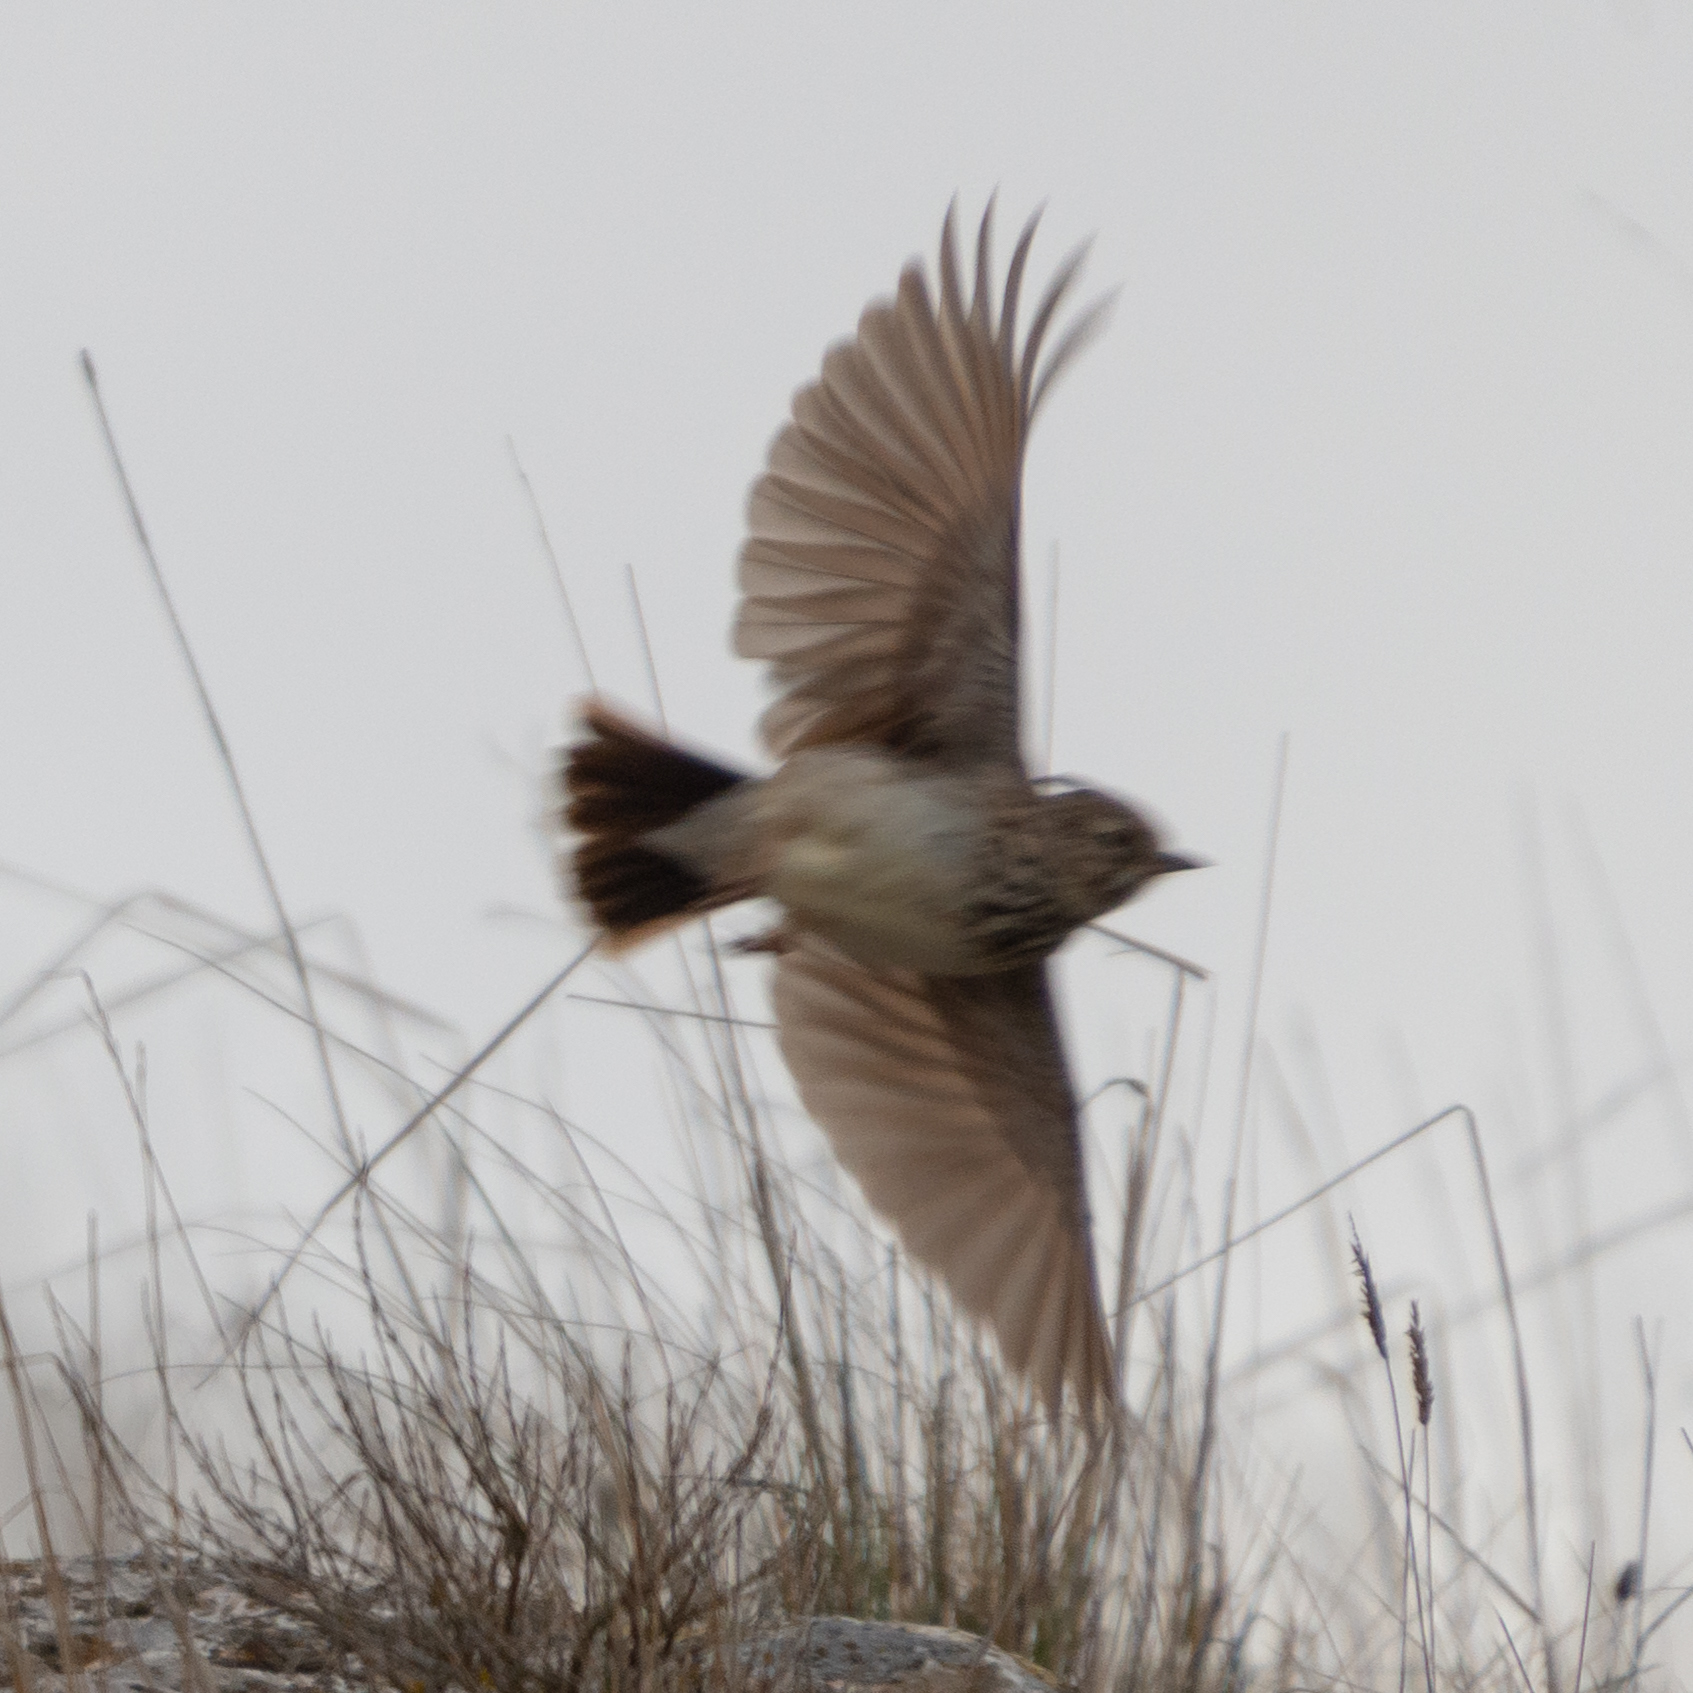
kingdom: Animalia
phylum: Chordata
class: Aves
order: Passeriformes
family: Alaudidae
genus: Galerida
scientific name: Galerida theklae
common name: Thekla lark
